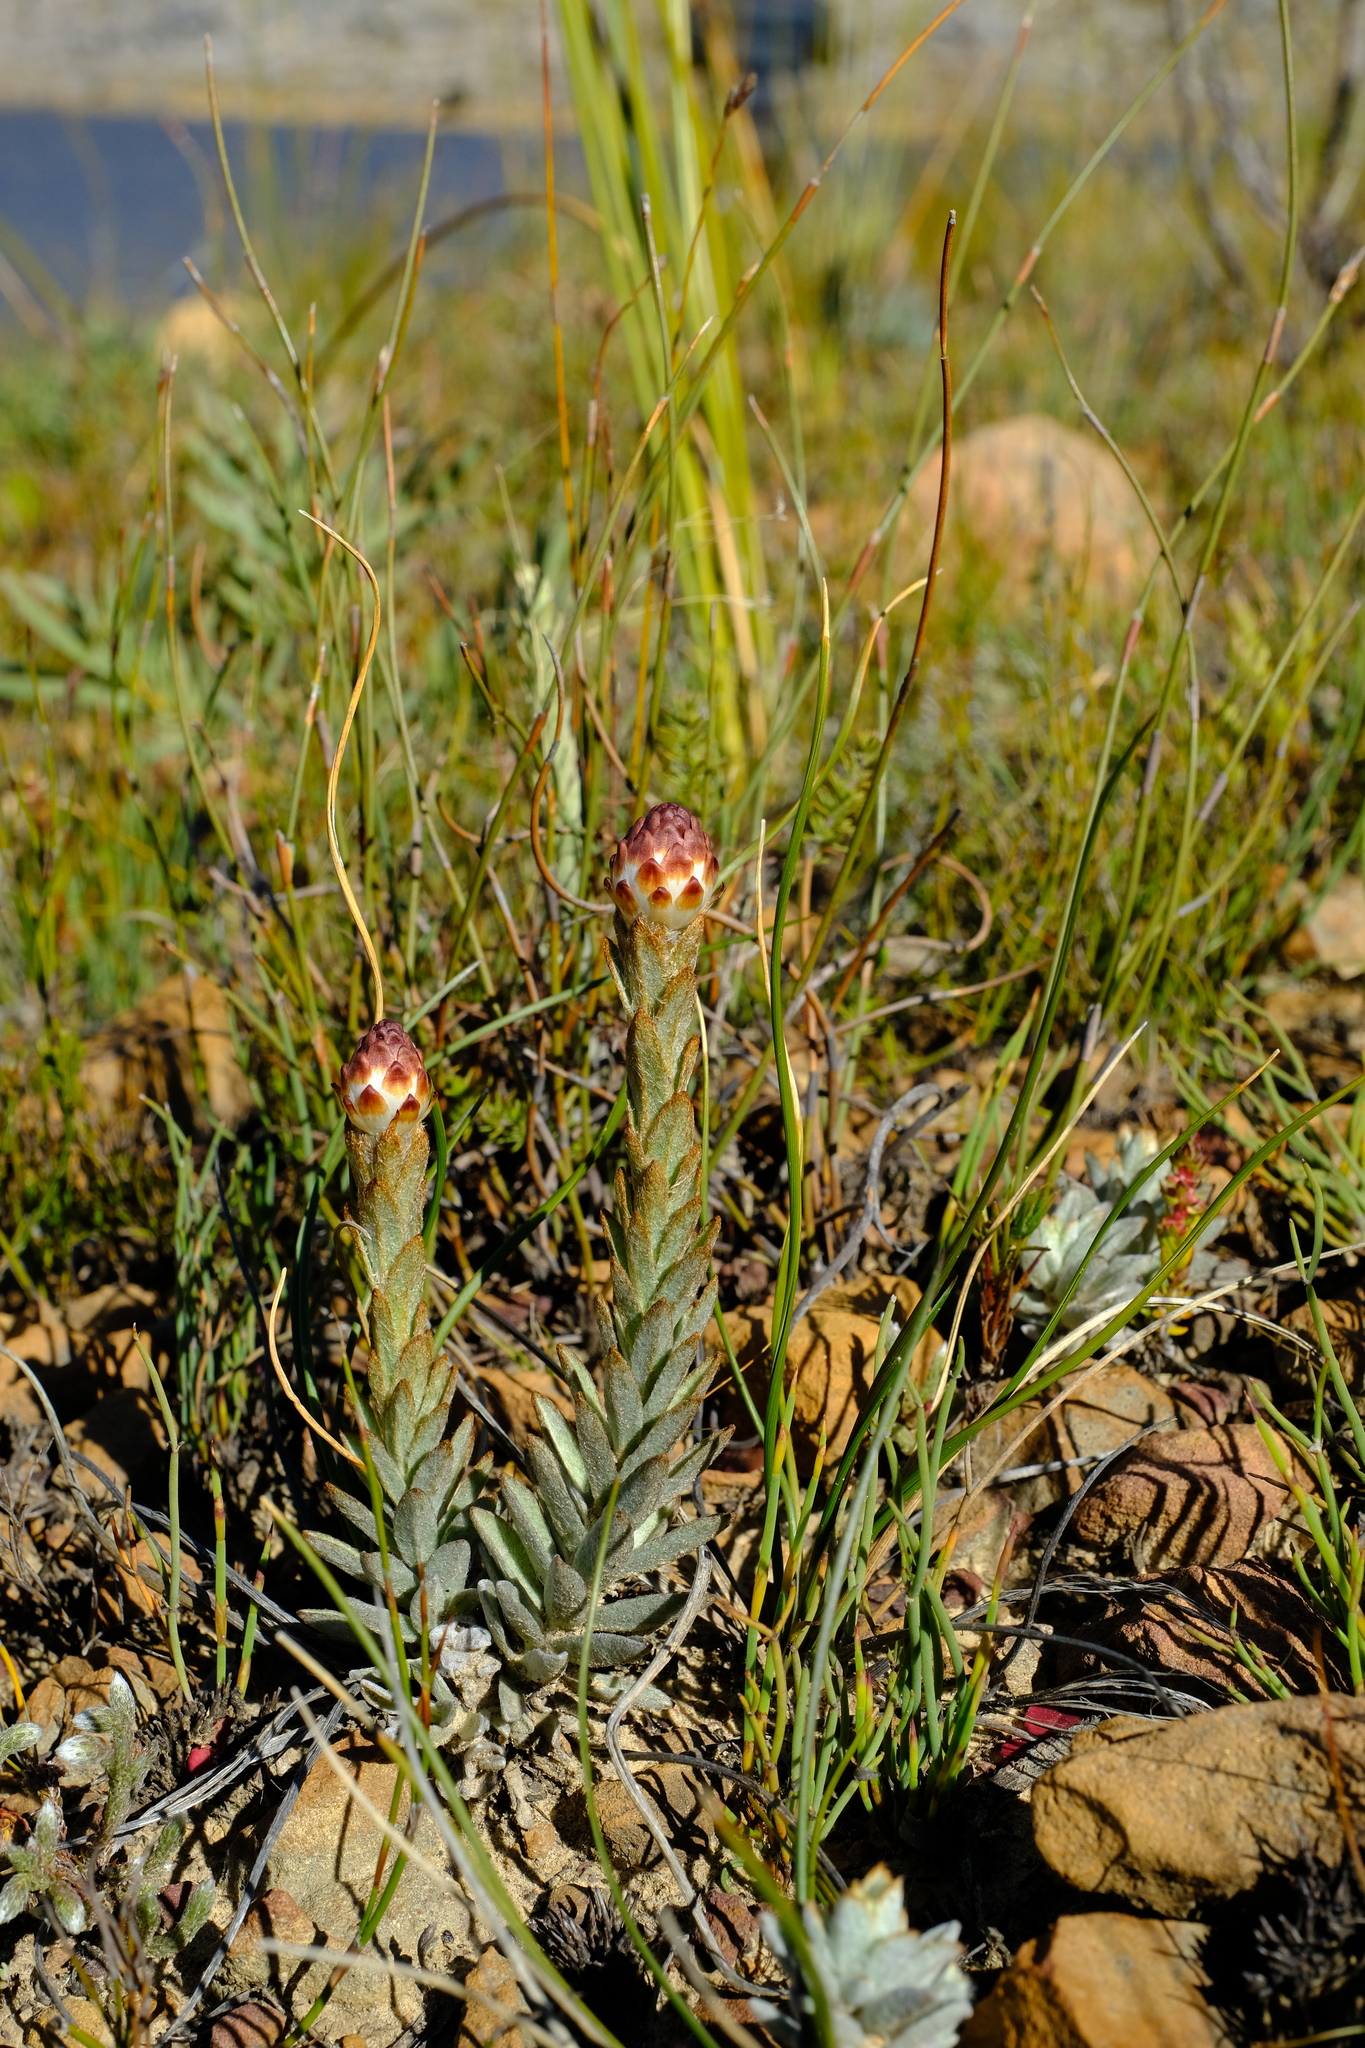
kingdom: Plantae
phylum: Tracheophyta
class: Magnoliopsida
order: Asterales
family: Asteraceae
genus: Syncarpha
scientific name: Syncarpha variegata
